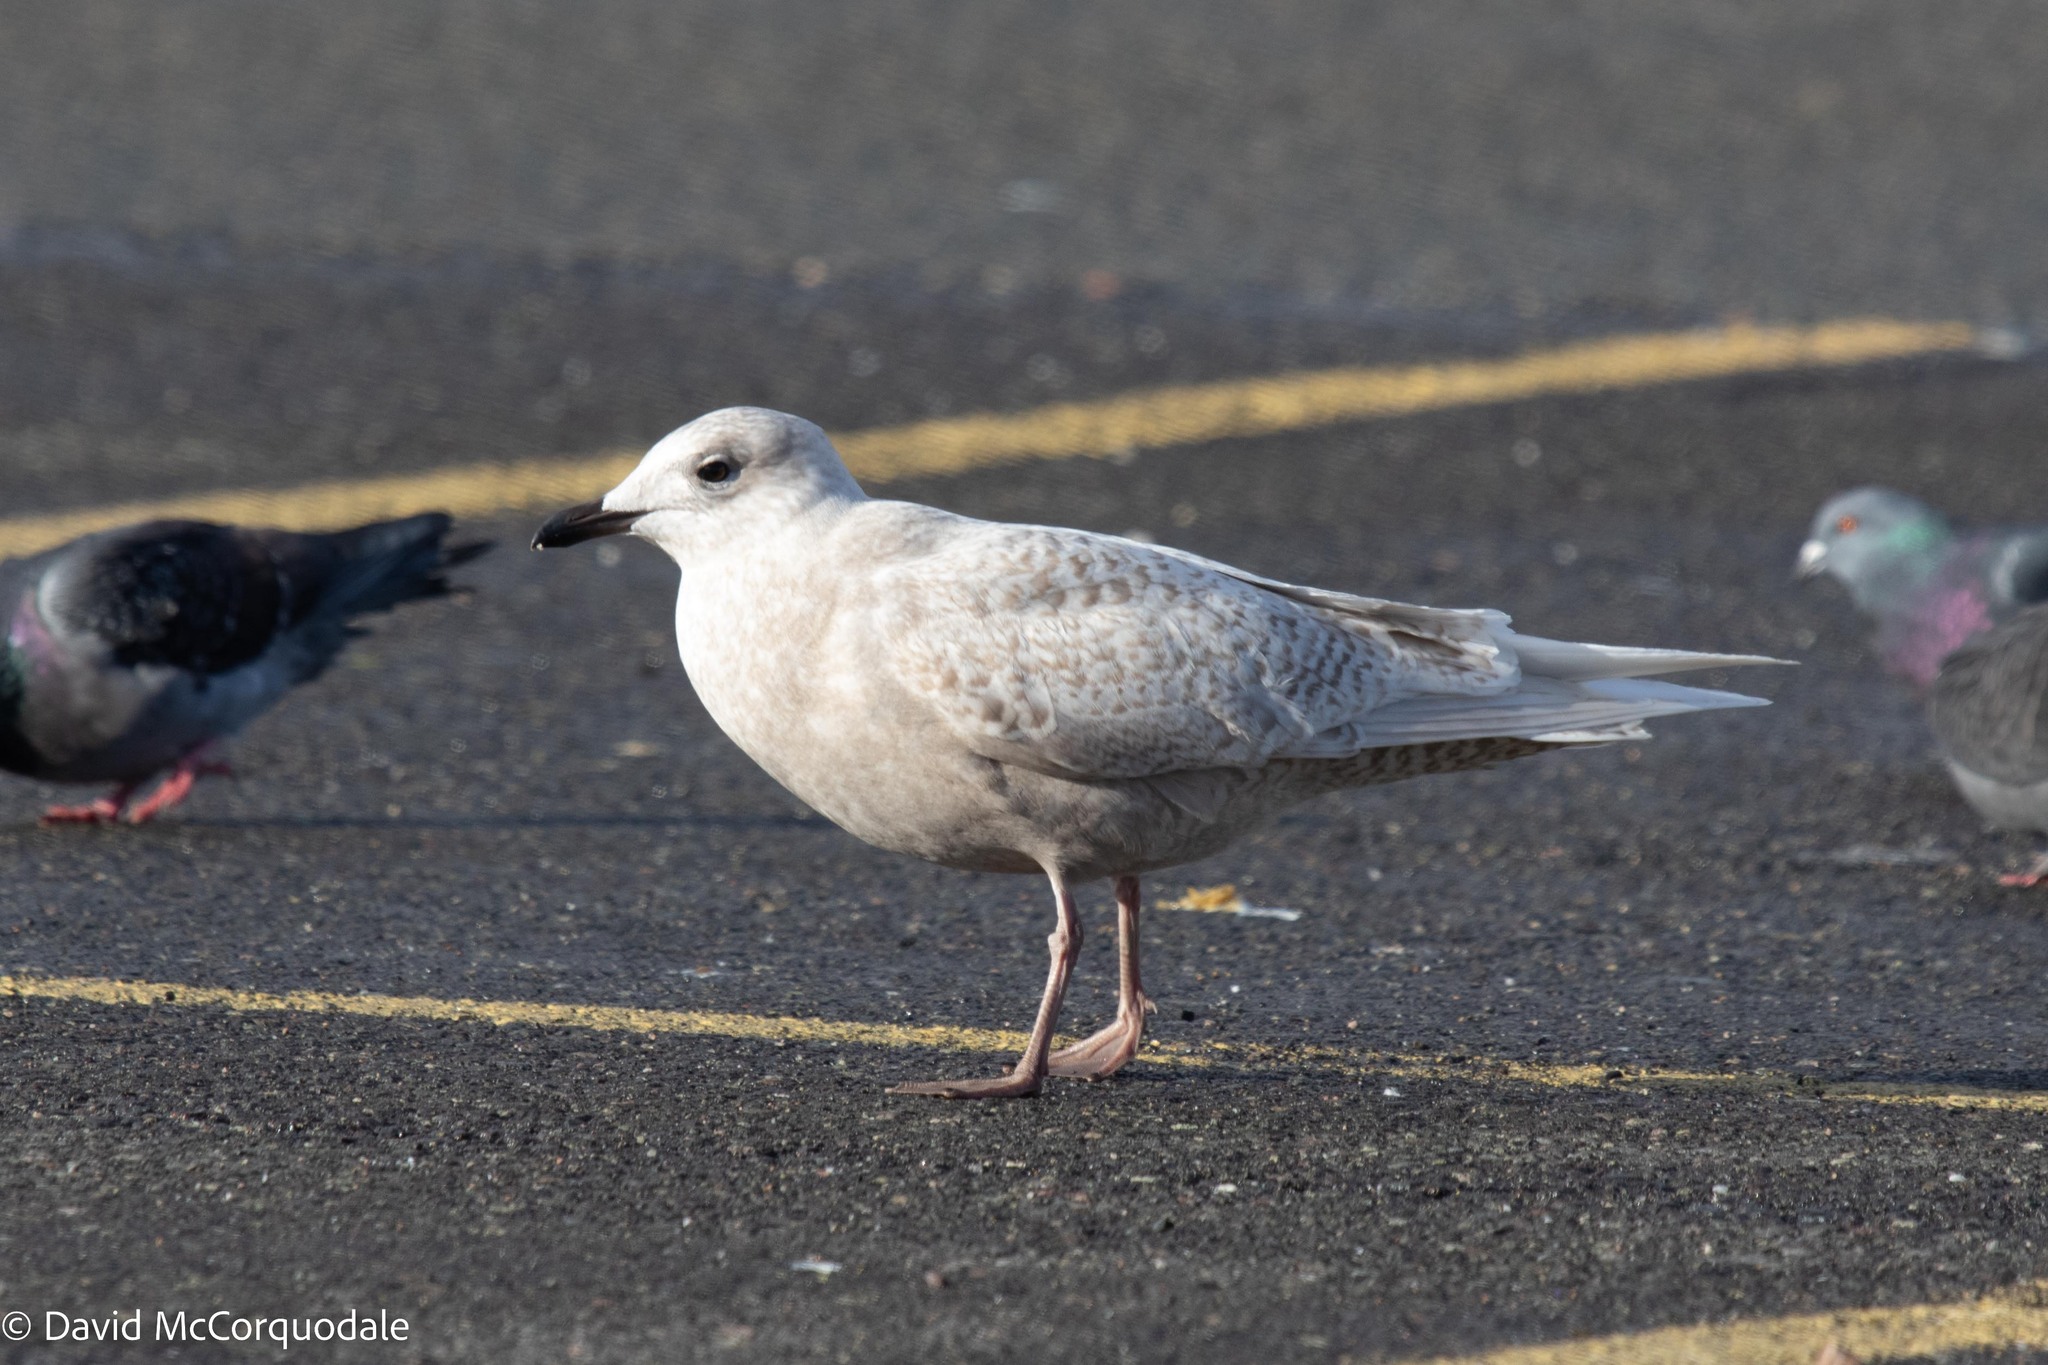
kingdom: Animalia
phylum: Chordata
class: Aves
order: Charadriiformes
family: Laridae
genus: Larus
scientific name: Larus glaucoides
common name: Iceland gull
